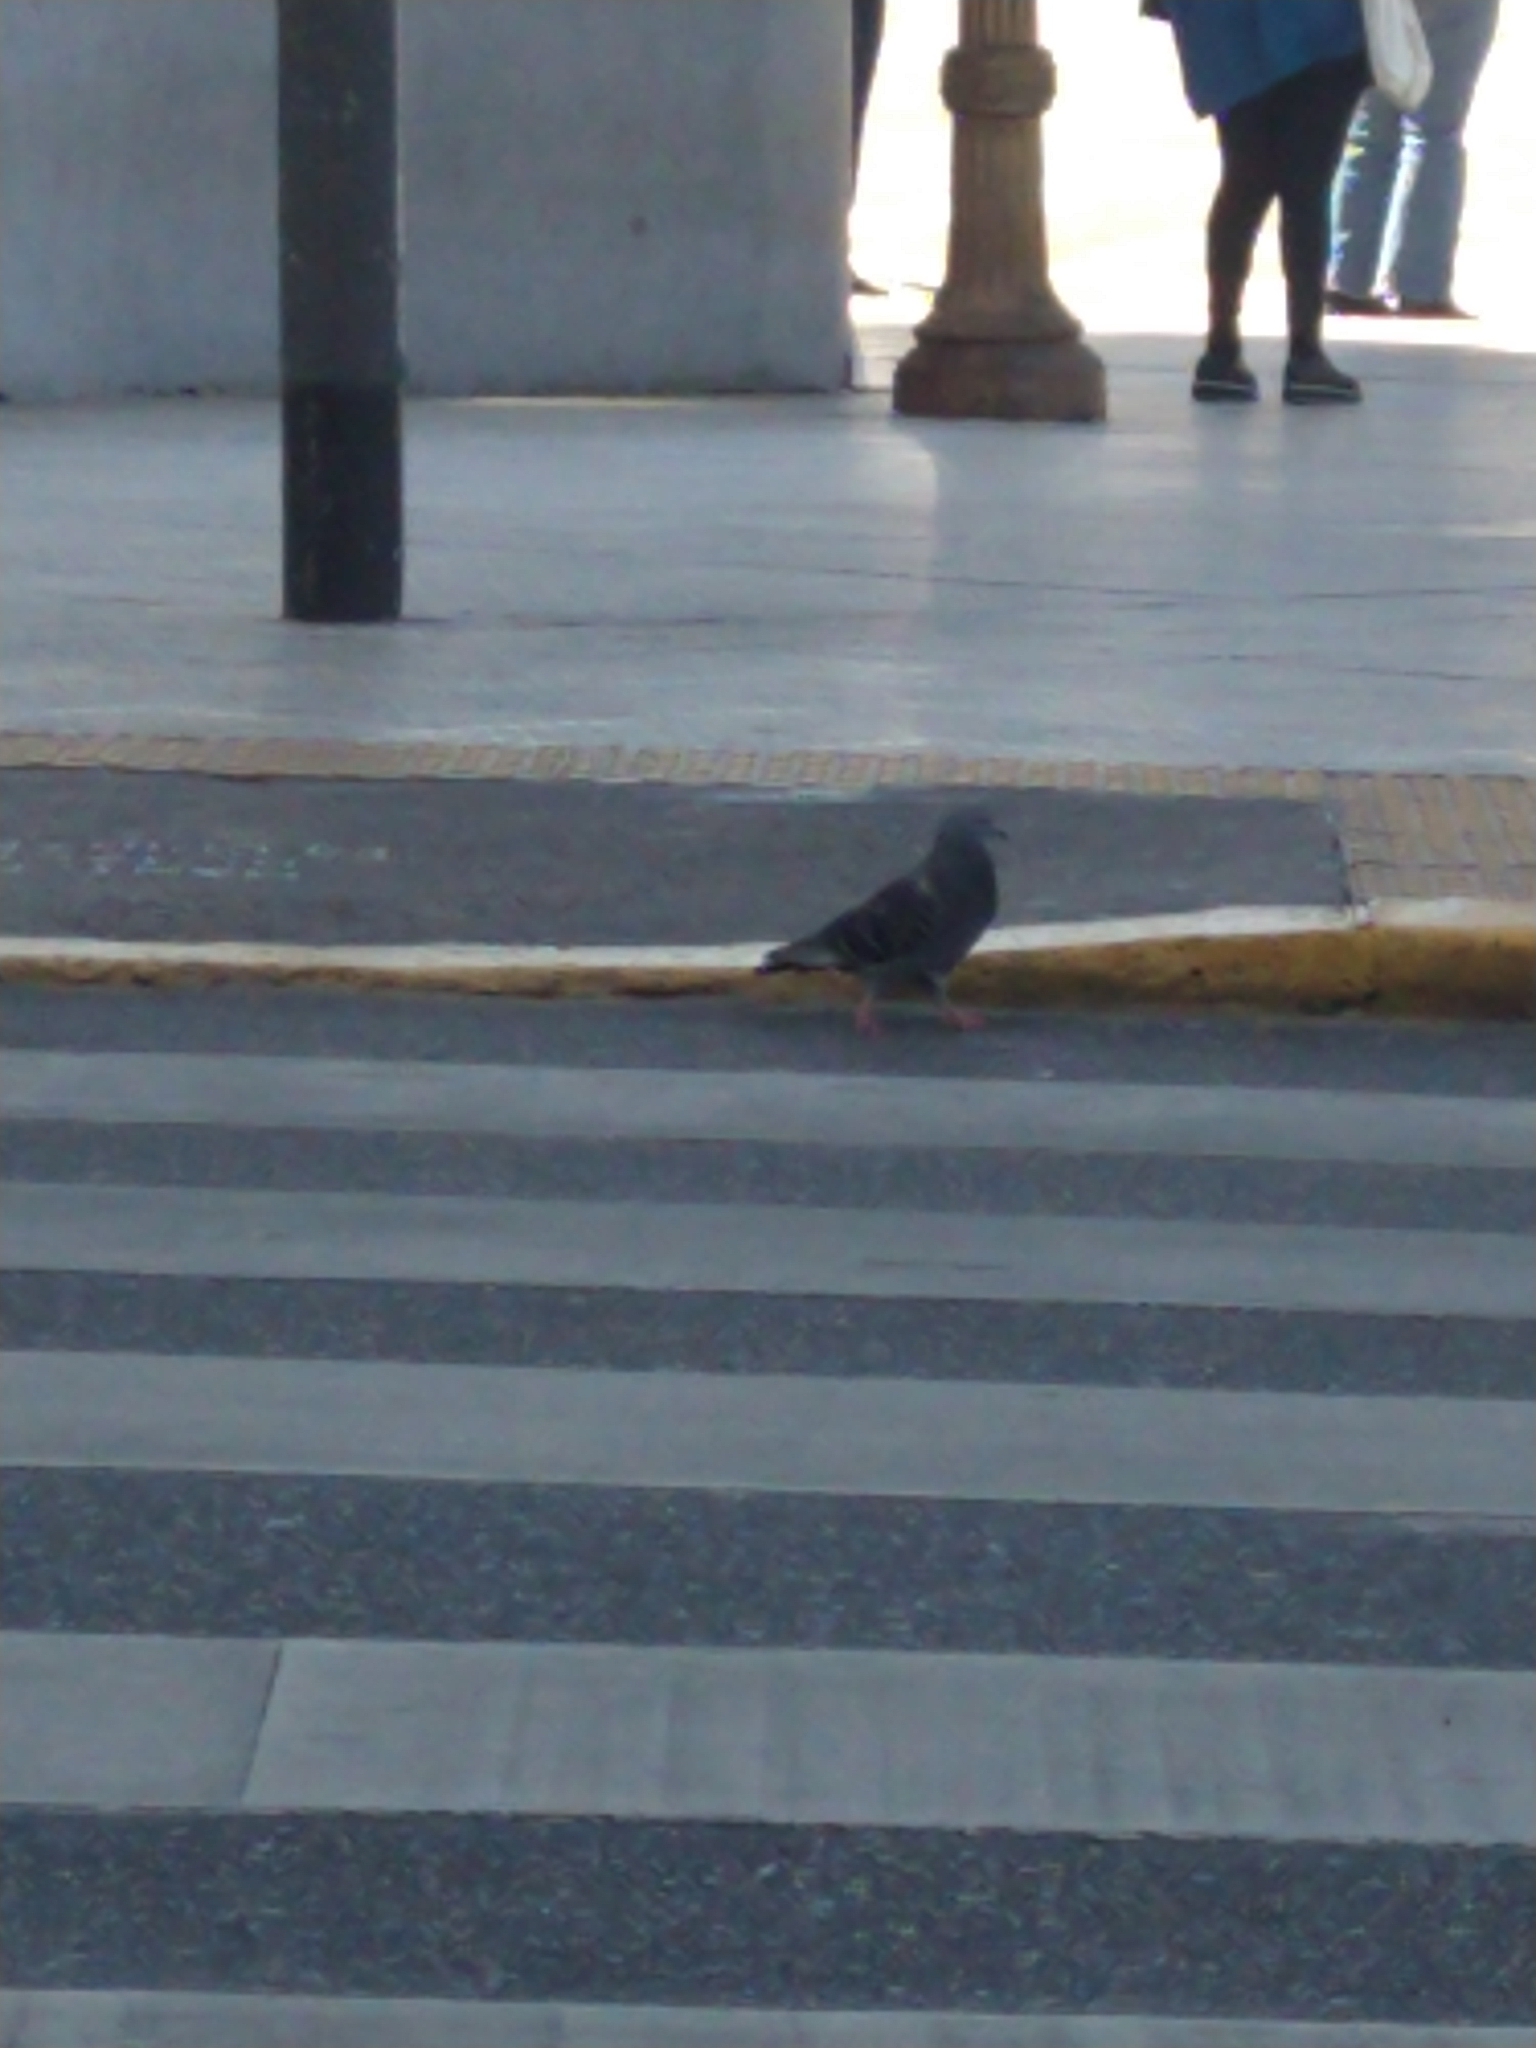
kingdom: Animalia
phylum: Chordata
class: Aves
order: Columbiformes
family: Columbidae
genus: Columba
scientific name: Columba livia
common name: Rock pigeon
